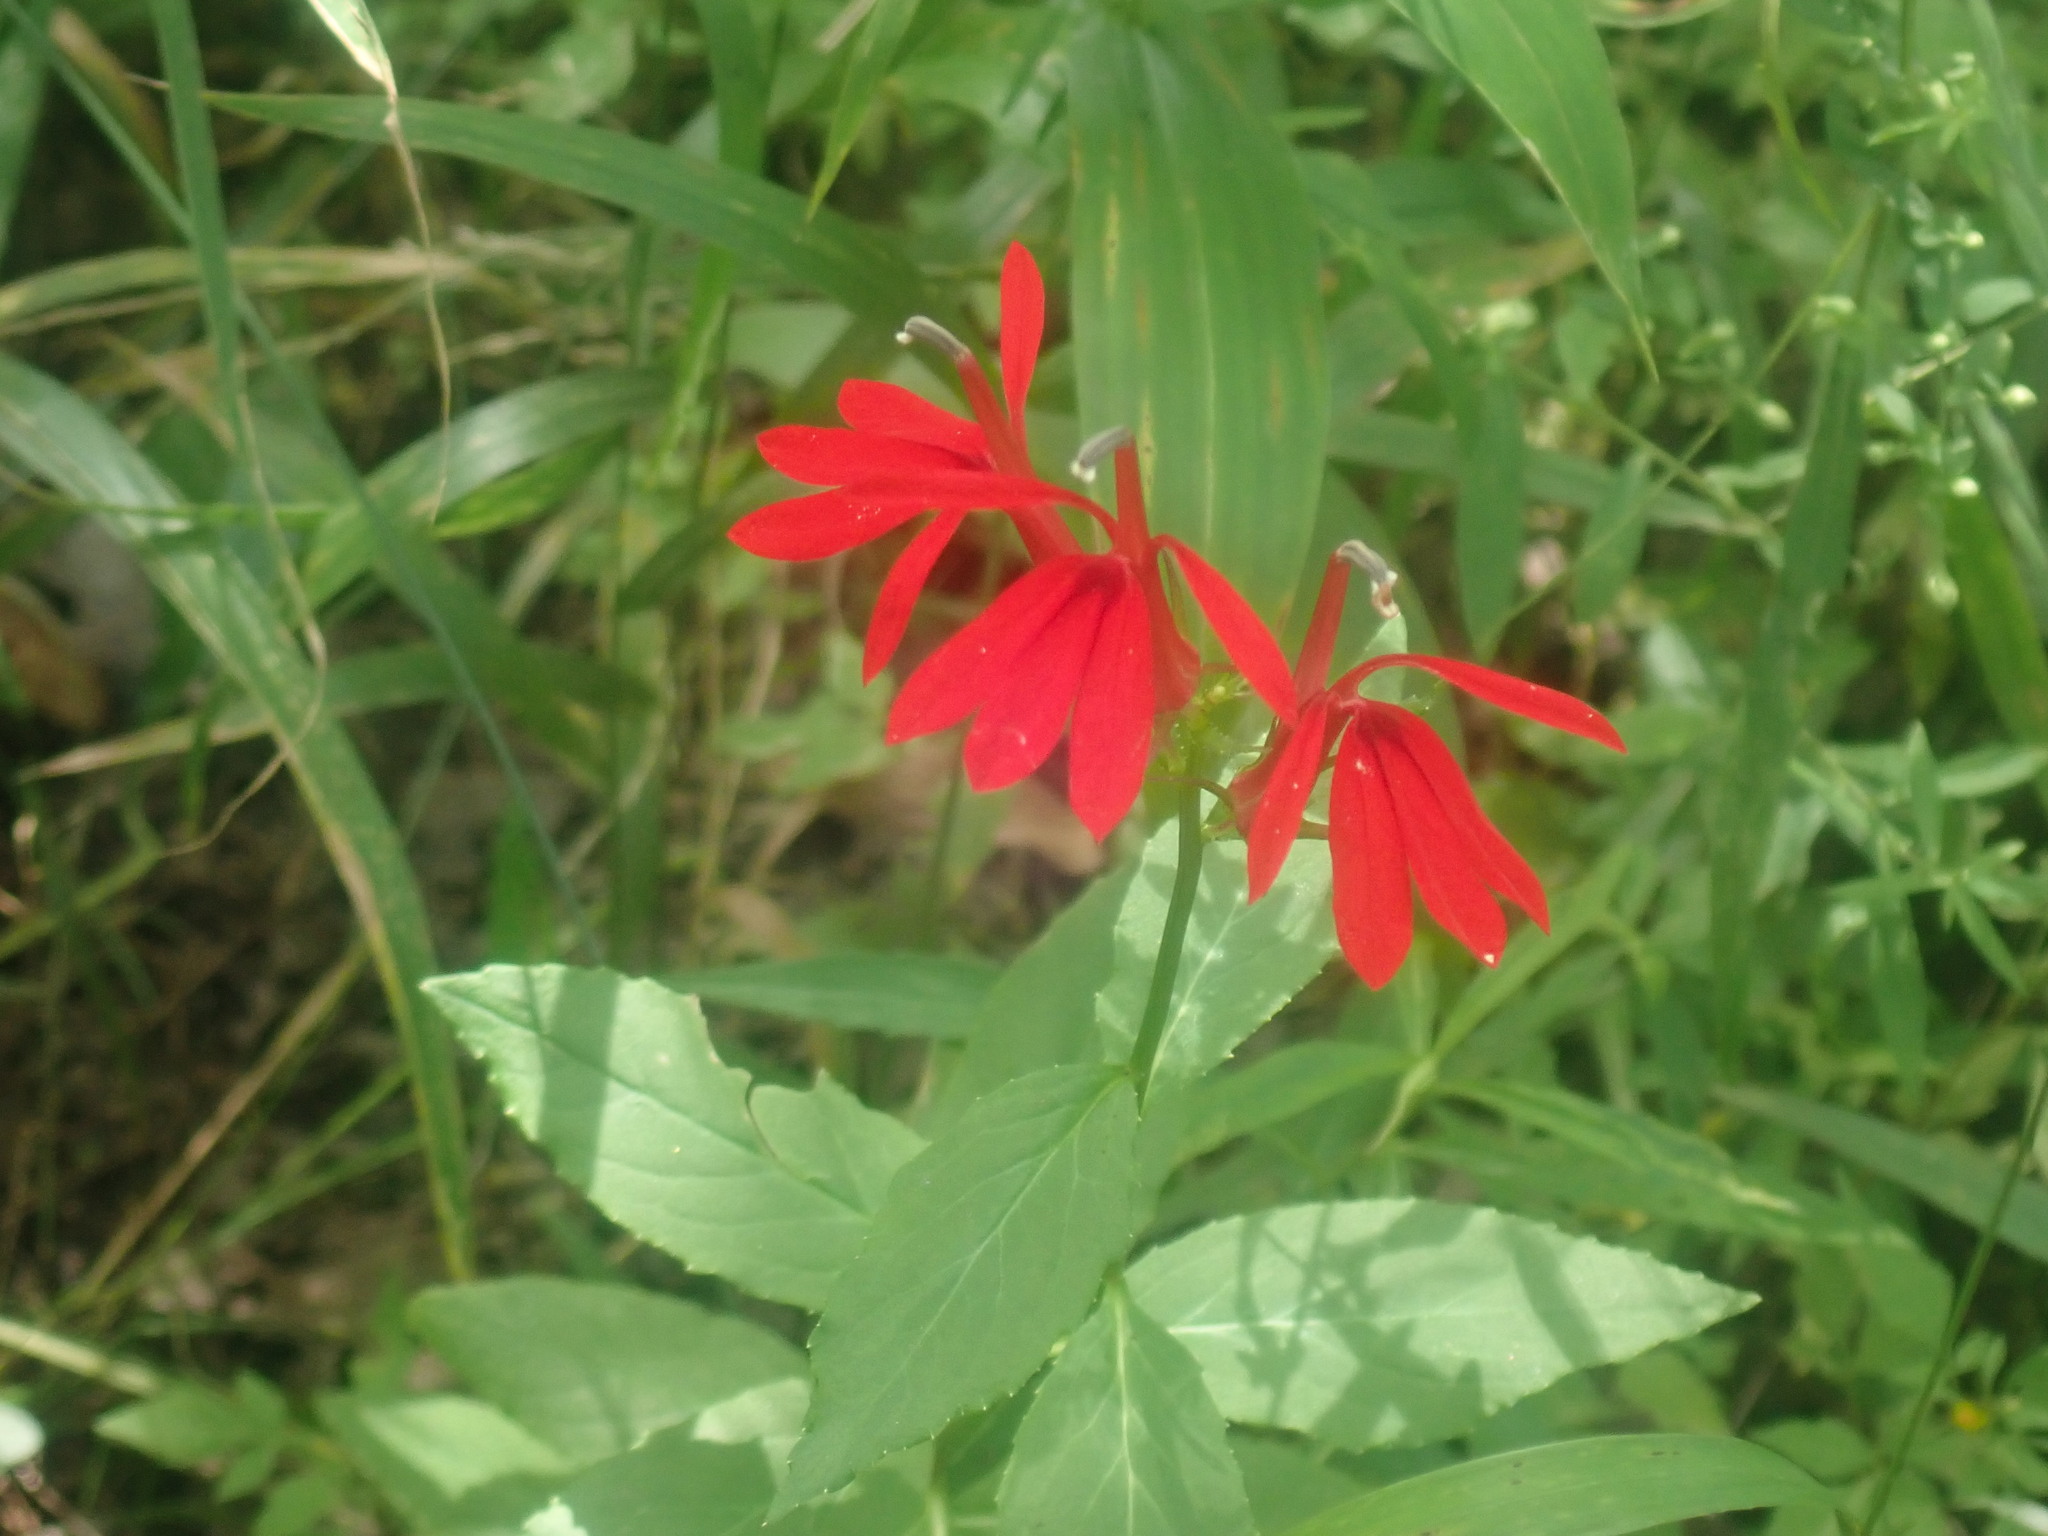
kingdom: Plantae
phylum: Tracheophyta
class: Magnoliopsida
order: Asterales
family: Campanulaceae
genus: Lobelia
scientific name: Lobelia cardinalis
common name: Cardinal flower
